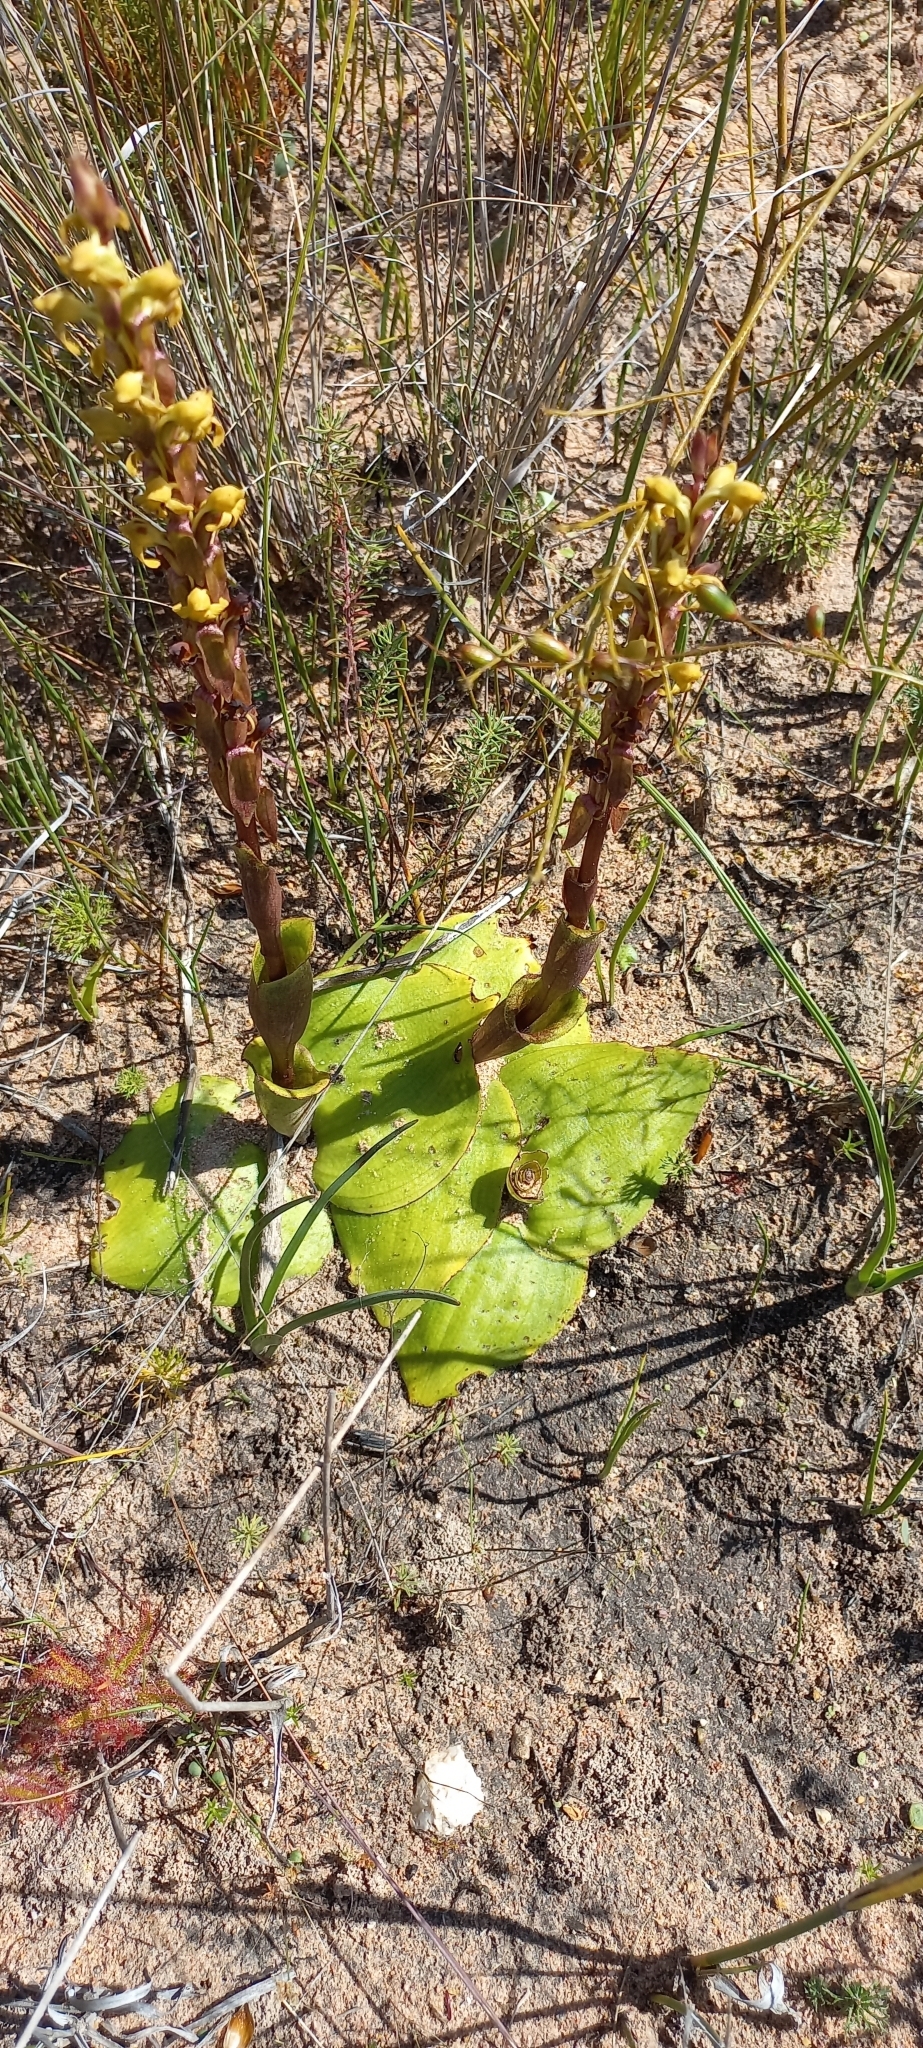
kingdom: Plantae
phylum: Tracheophyta
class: Liliopsida
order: Asparagales
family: Orchidaceae
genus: Satyrium
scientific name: Satyrium bicorne
